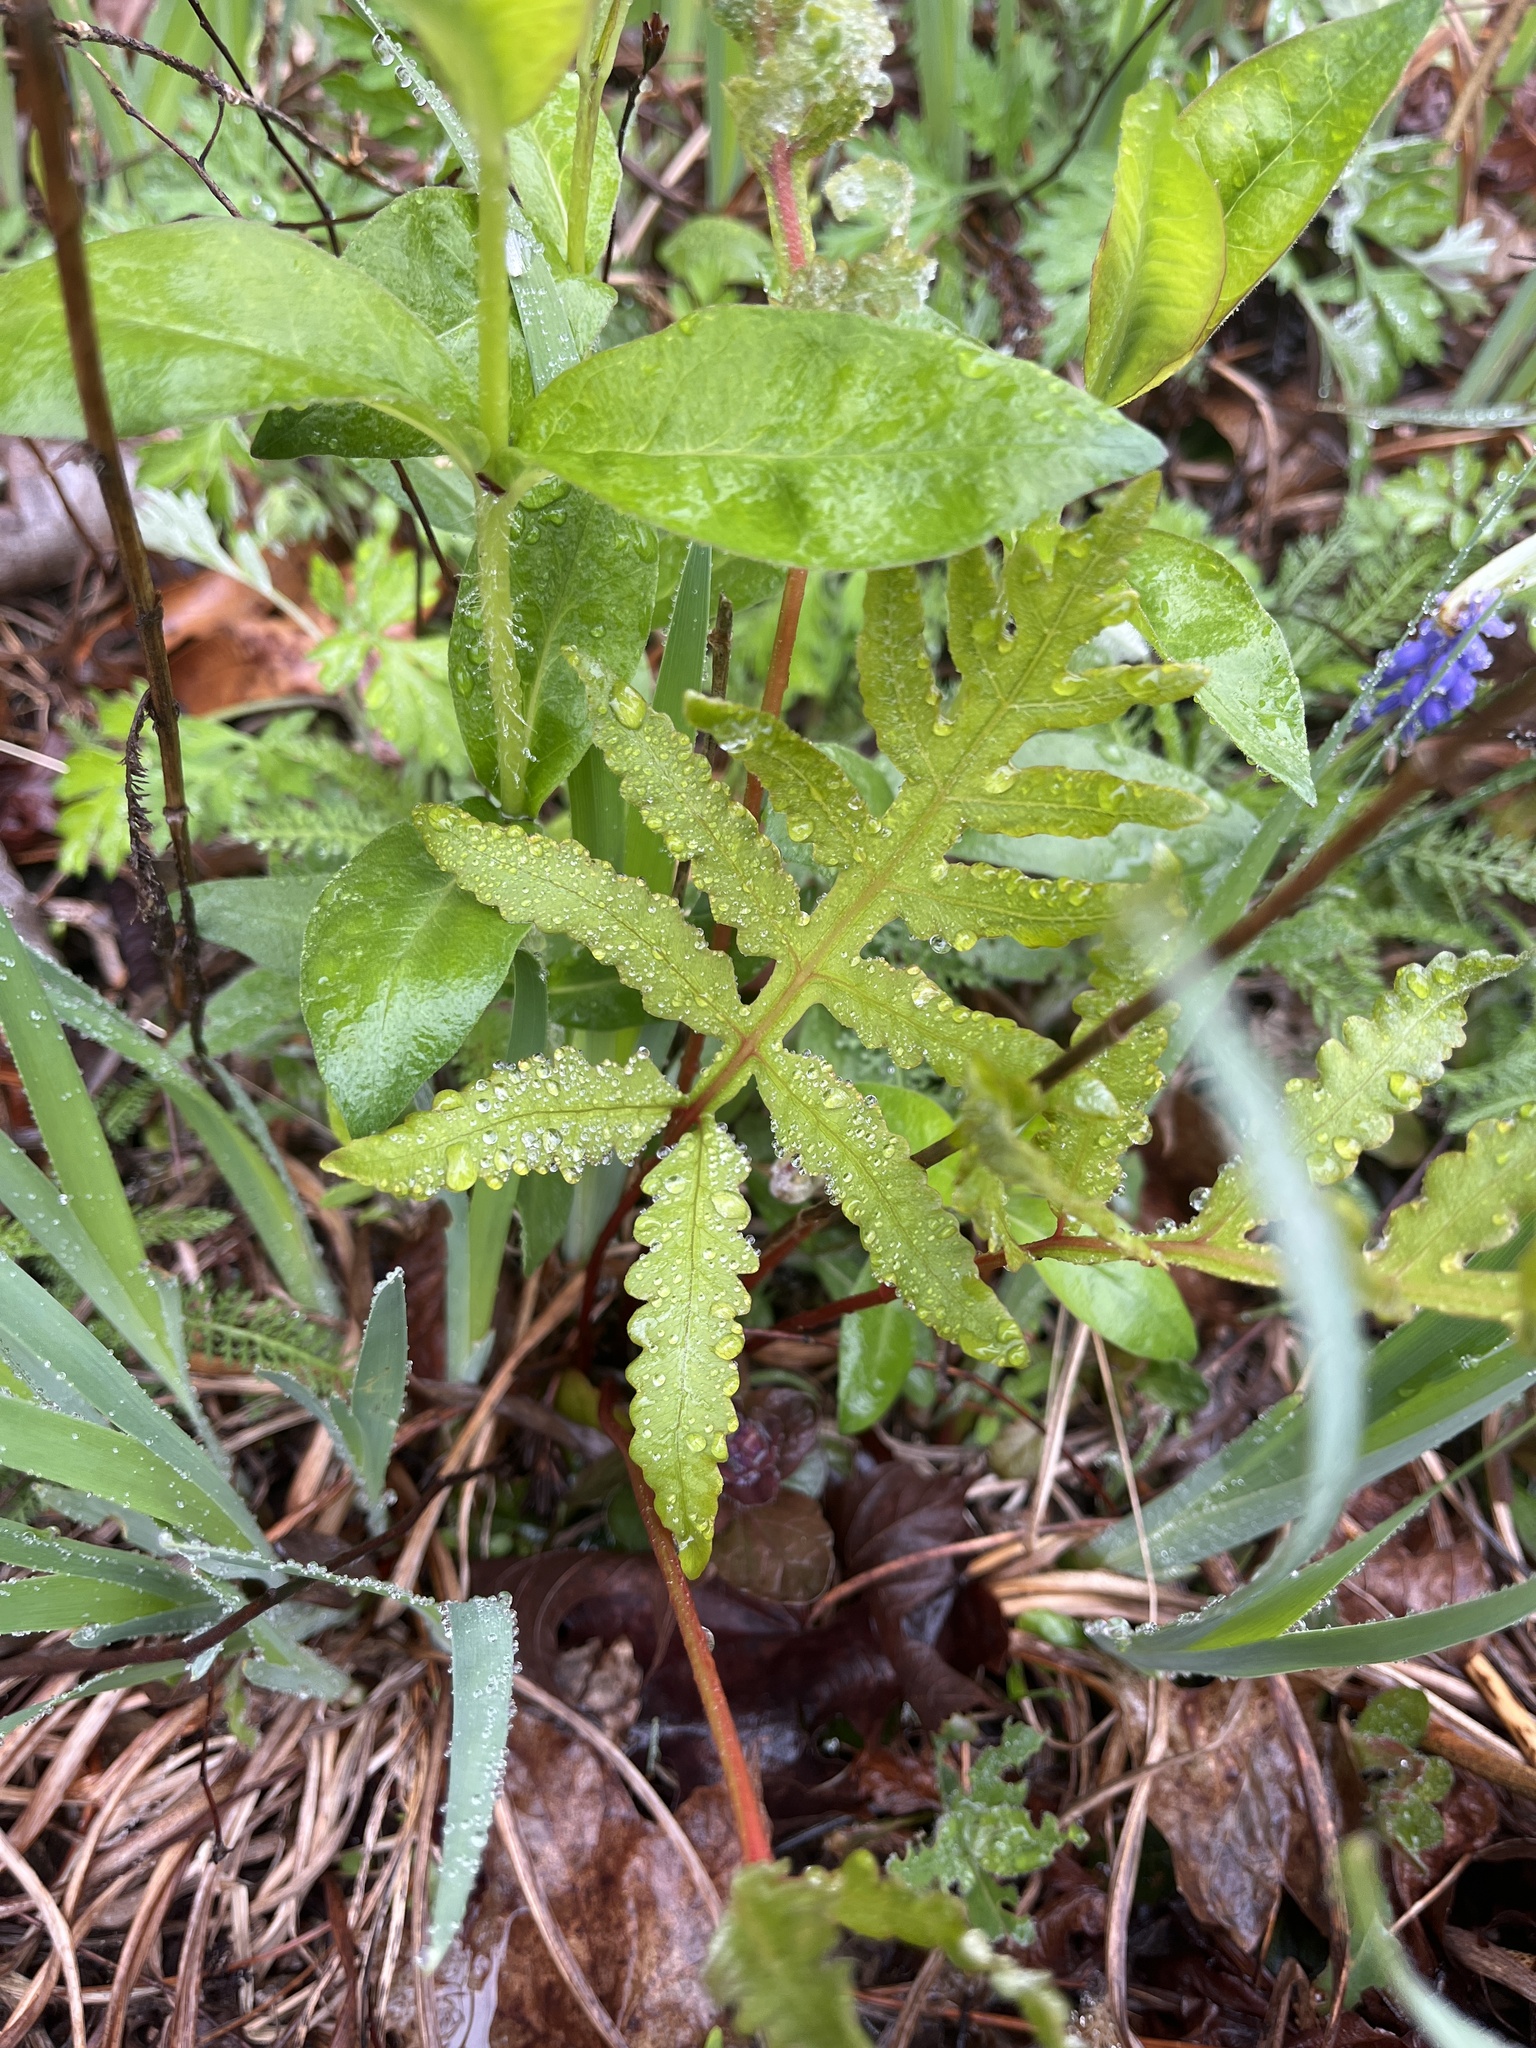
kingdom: Plantae
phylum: Tracheophyta
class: Polypodiopsida
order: Polypodiales
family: Onocleaceae
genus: Onoclea
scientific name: Onoclea sensibilis
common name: Sensitive fern
